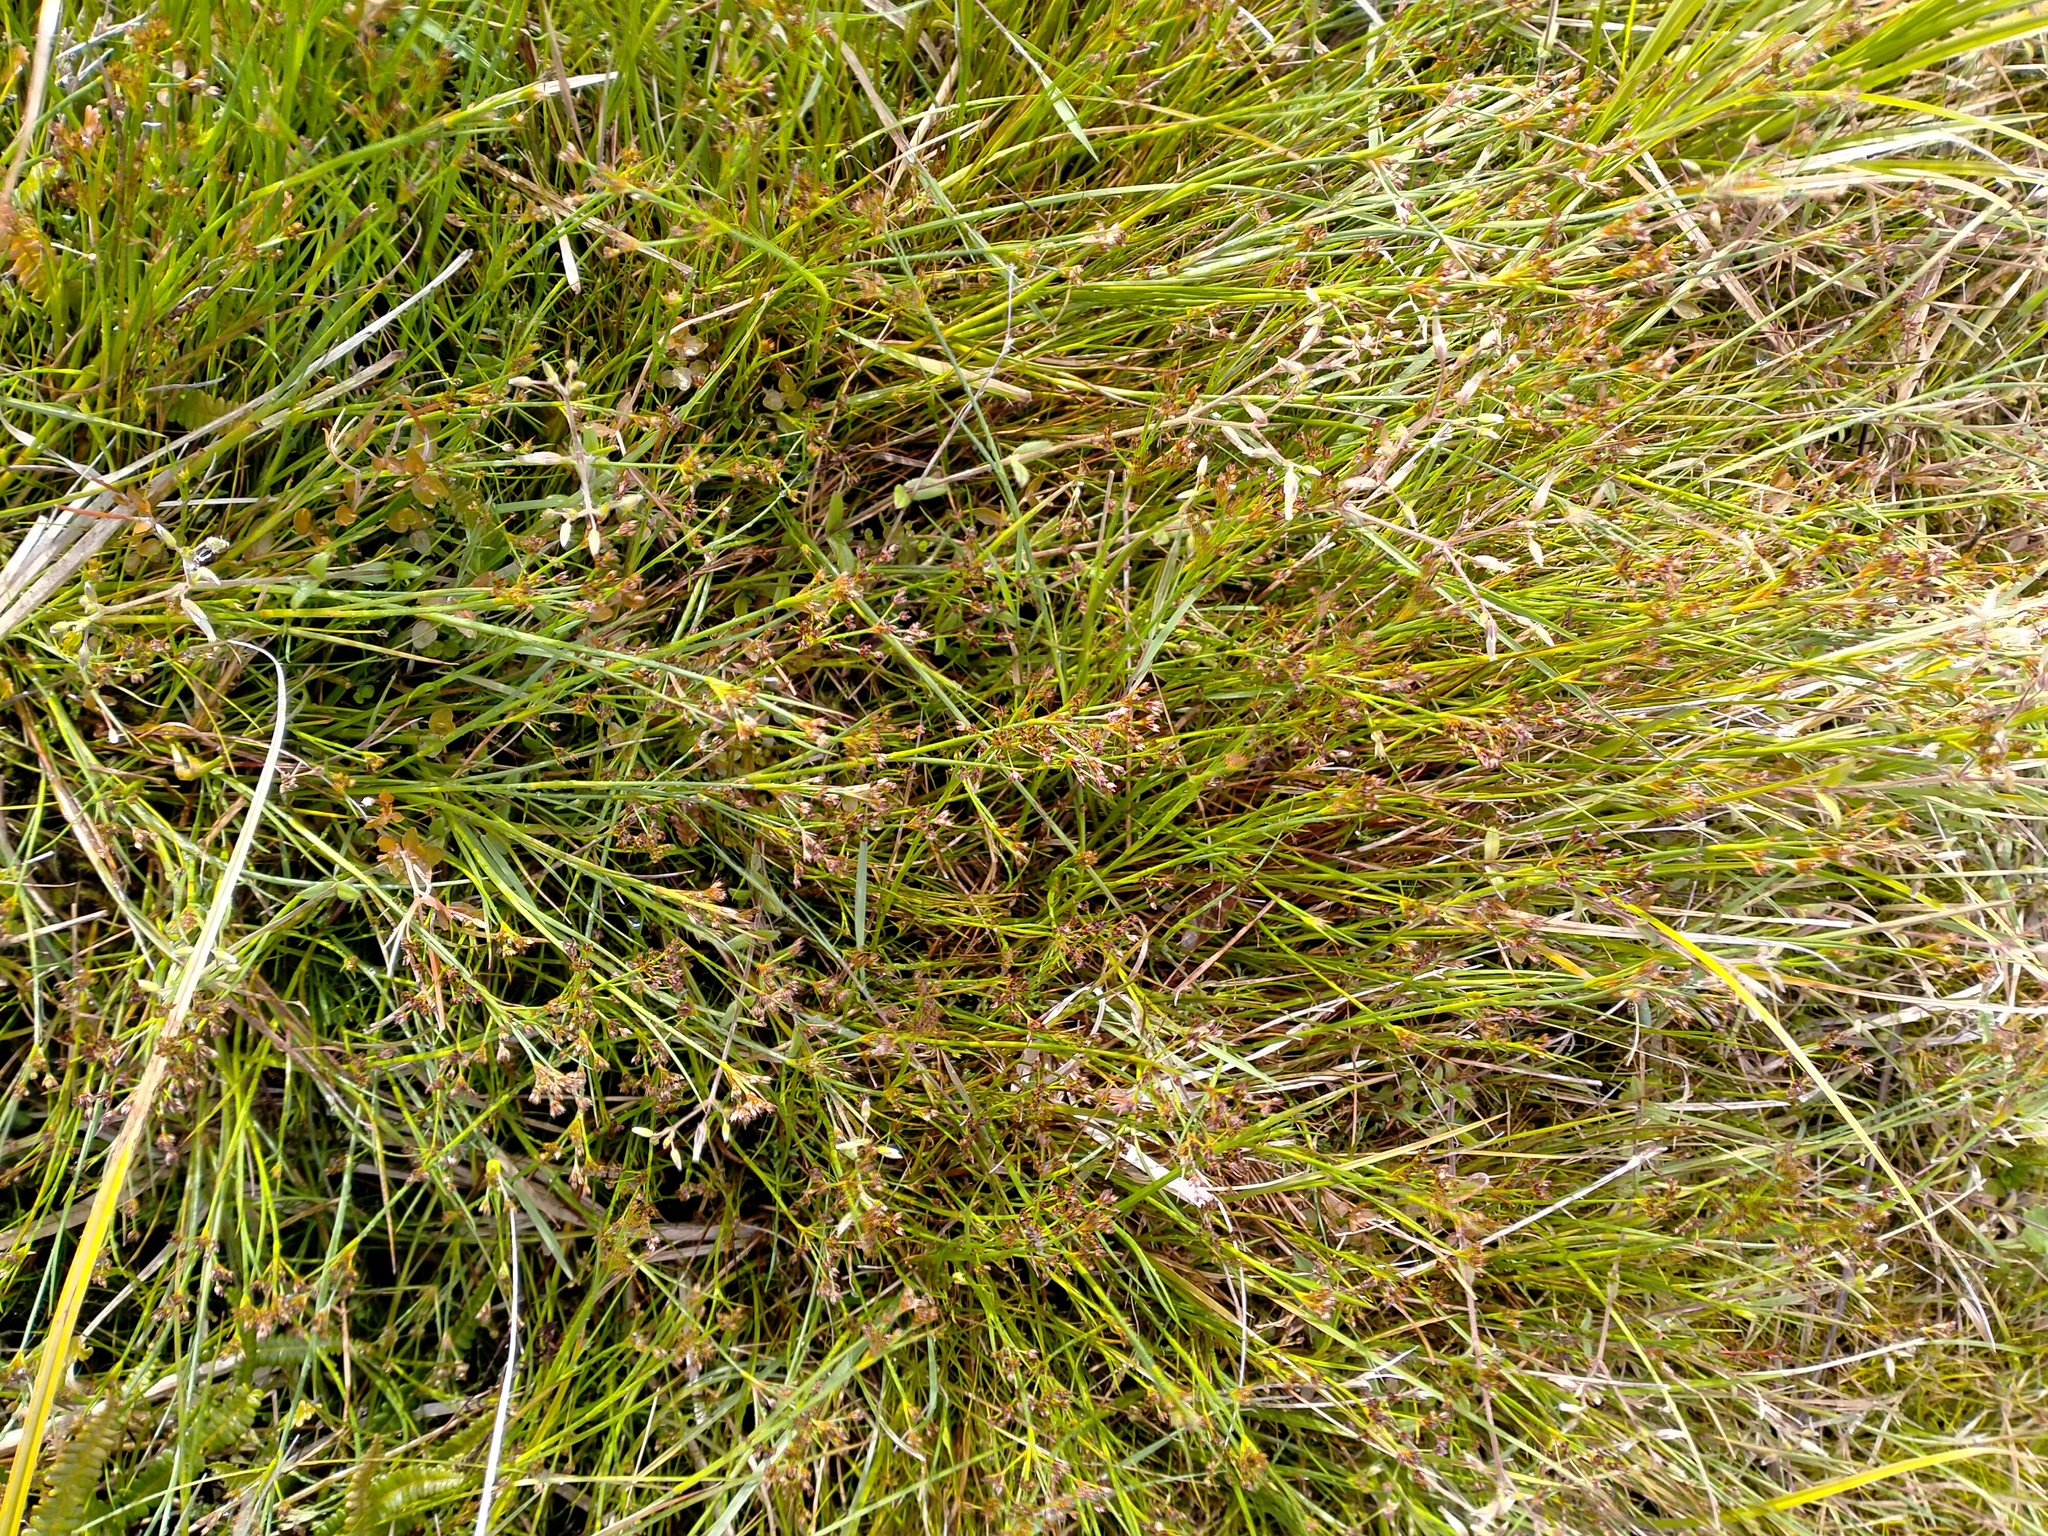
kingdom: Plantae
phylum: Tracheophyta
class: Liliopsida
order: Poales
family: Juncaceae
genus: Juncus
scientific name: Juncus articulatus
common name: Jointed rush
